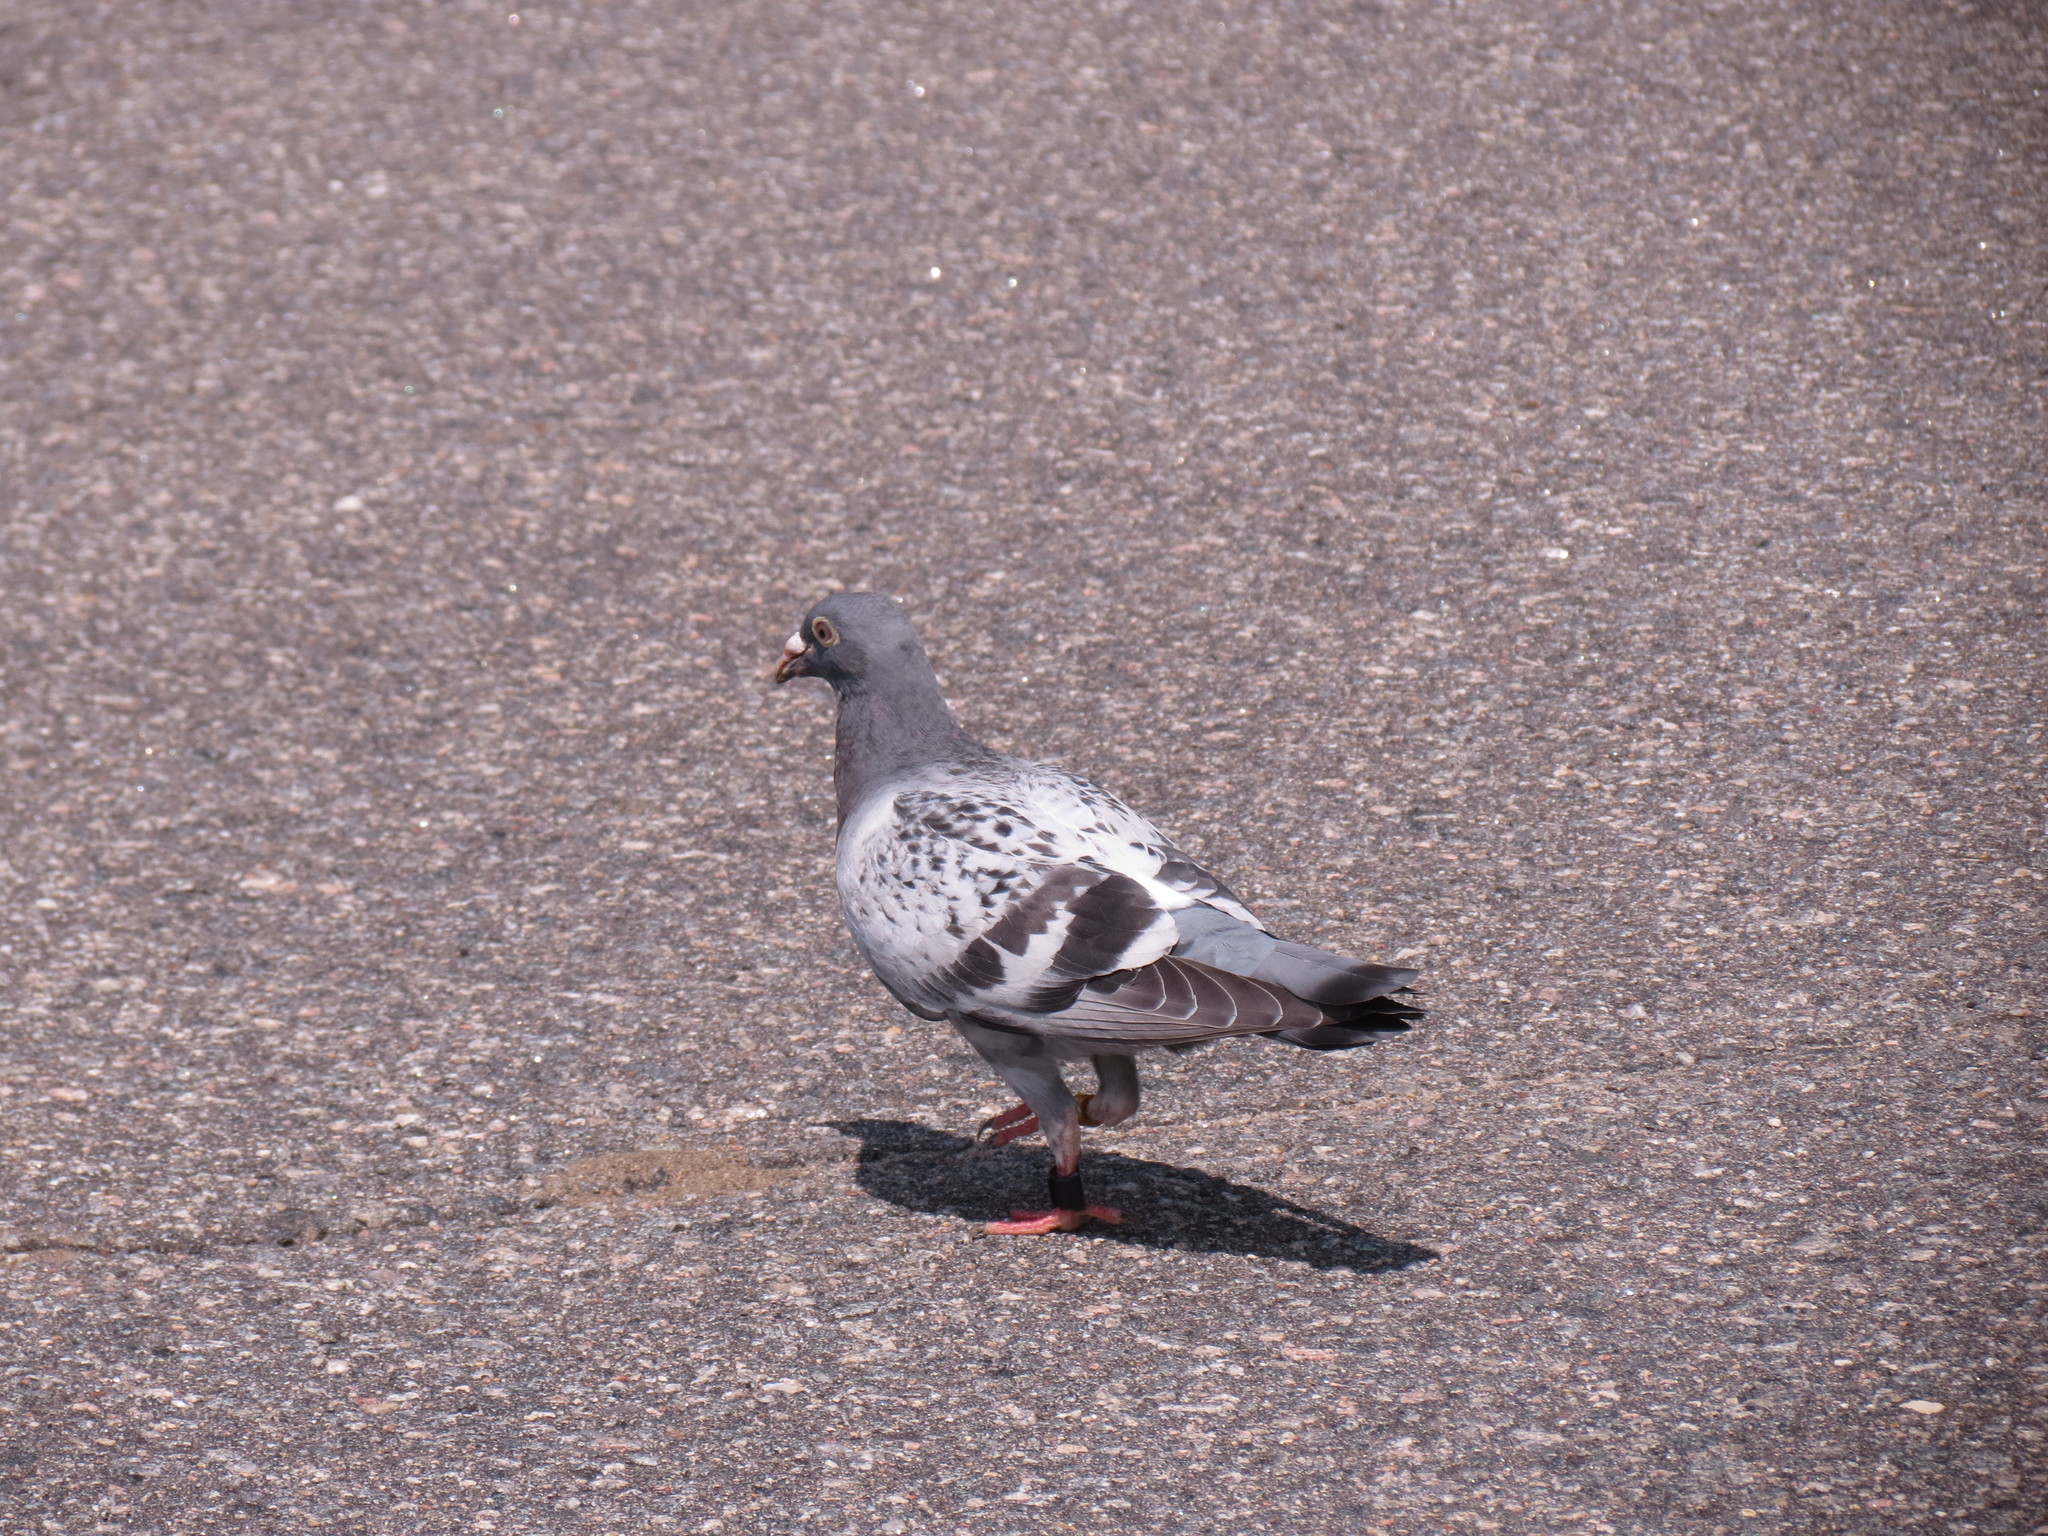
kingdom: Animalia
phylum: Chordata
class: Aves
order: Columbiformes
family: Columbidae
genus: Columba
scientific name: Columba livia
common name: Rock pigeon
